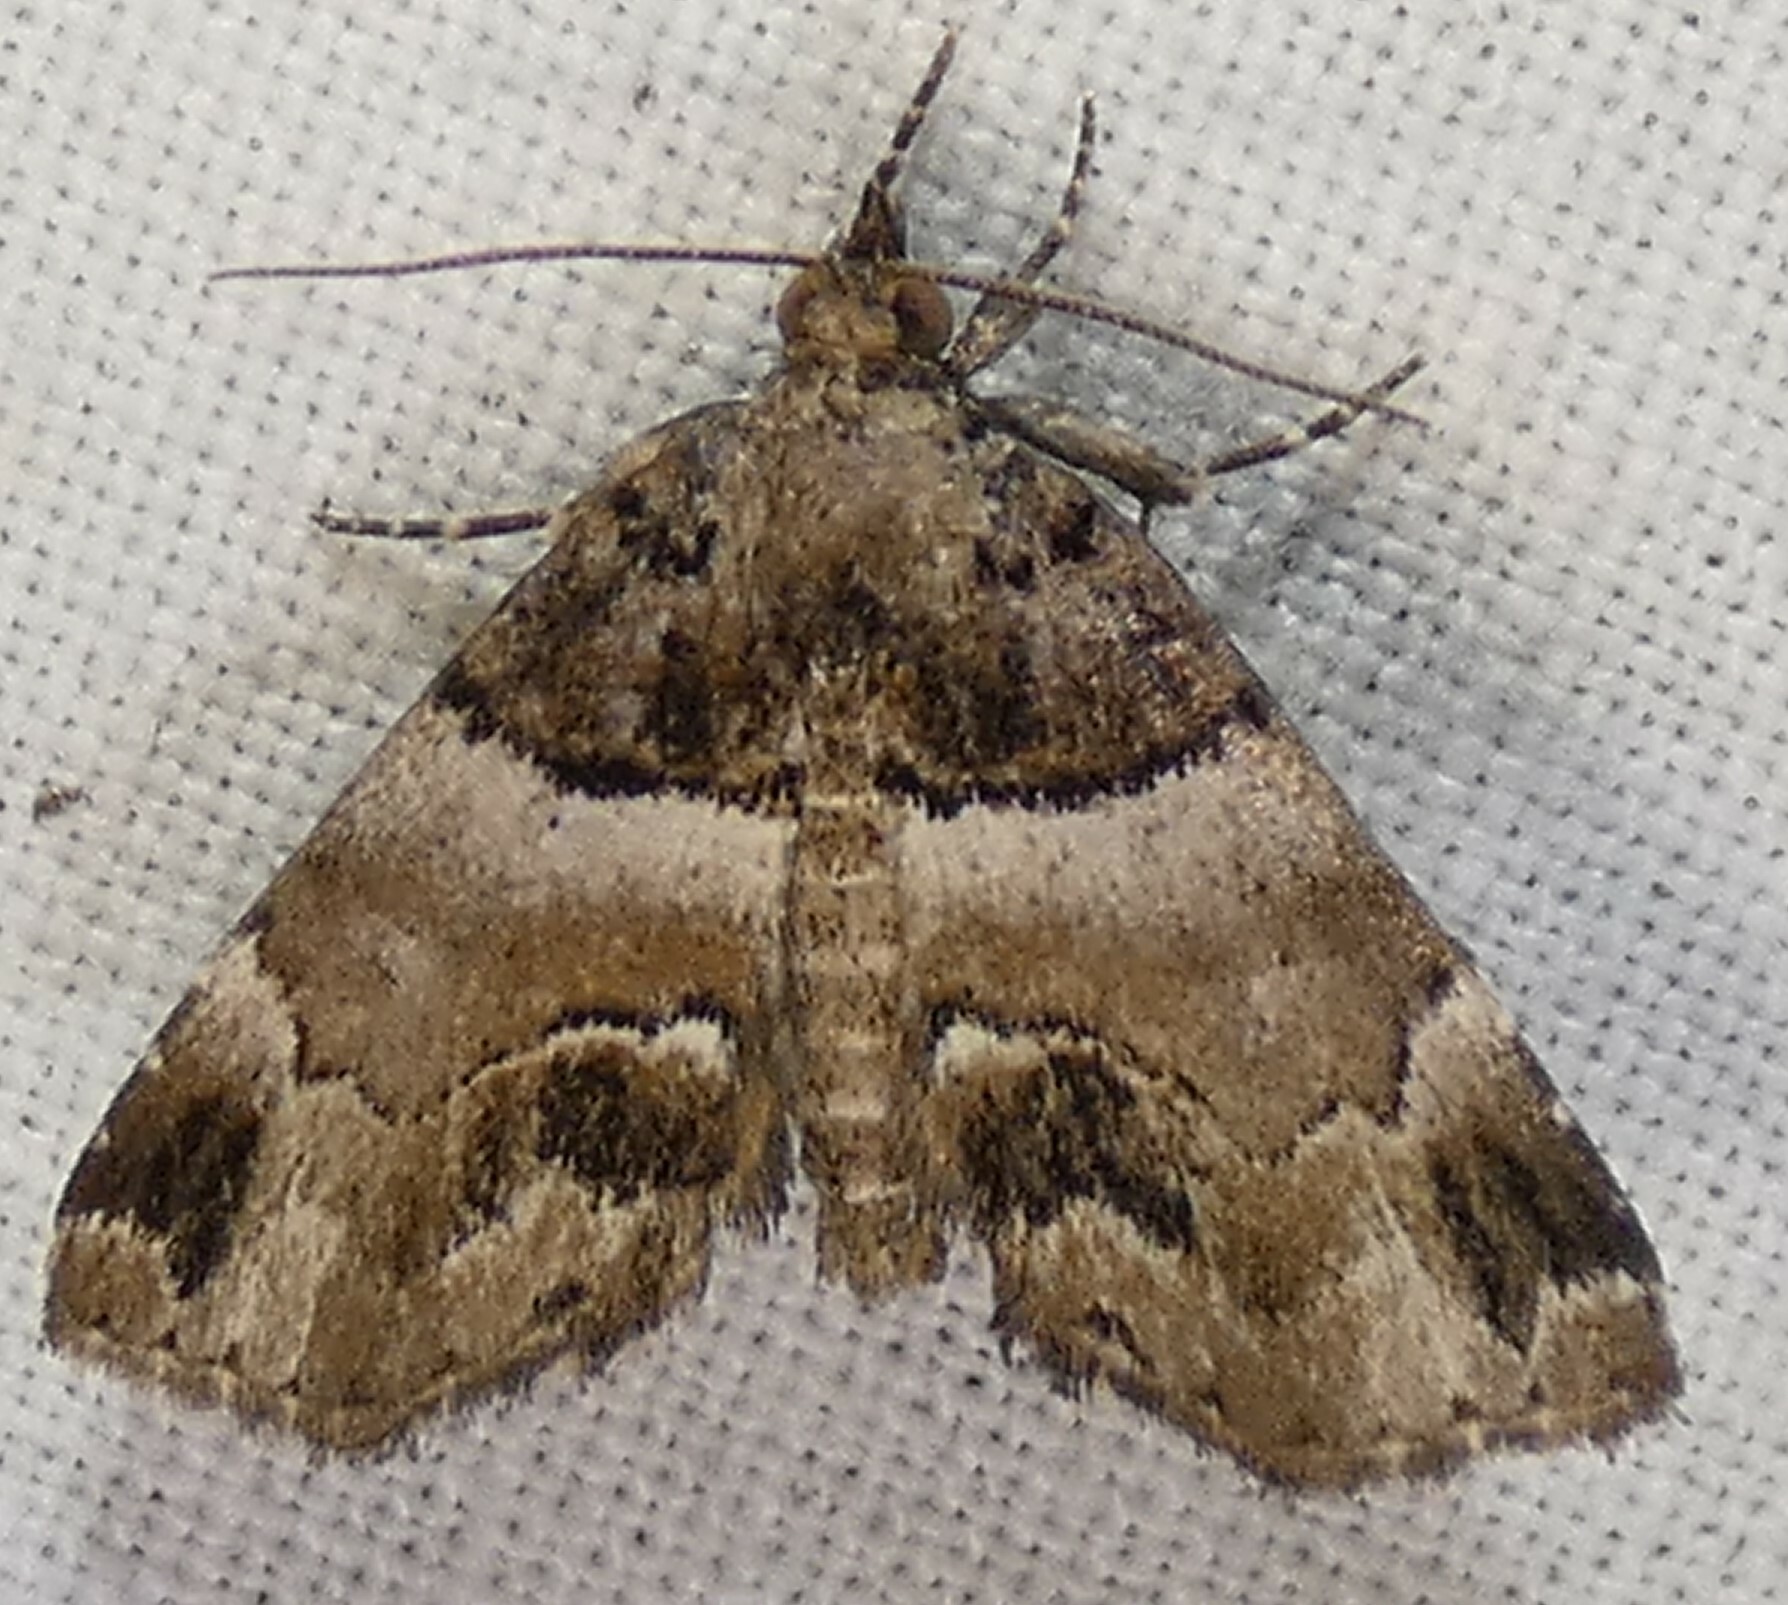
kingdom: Animalia
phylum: Arthropoda
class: Insecta
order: Lepidoptera
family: Erebidae
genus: Cutina
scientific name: Cutina distincta
